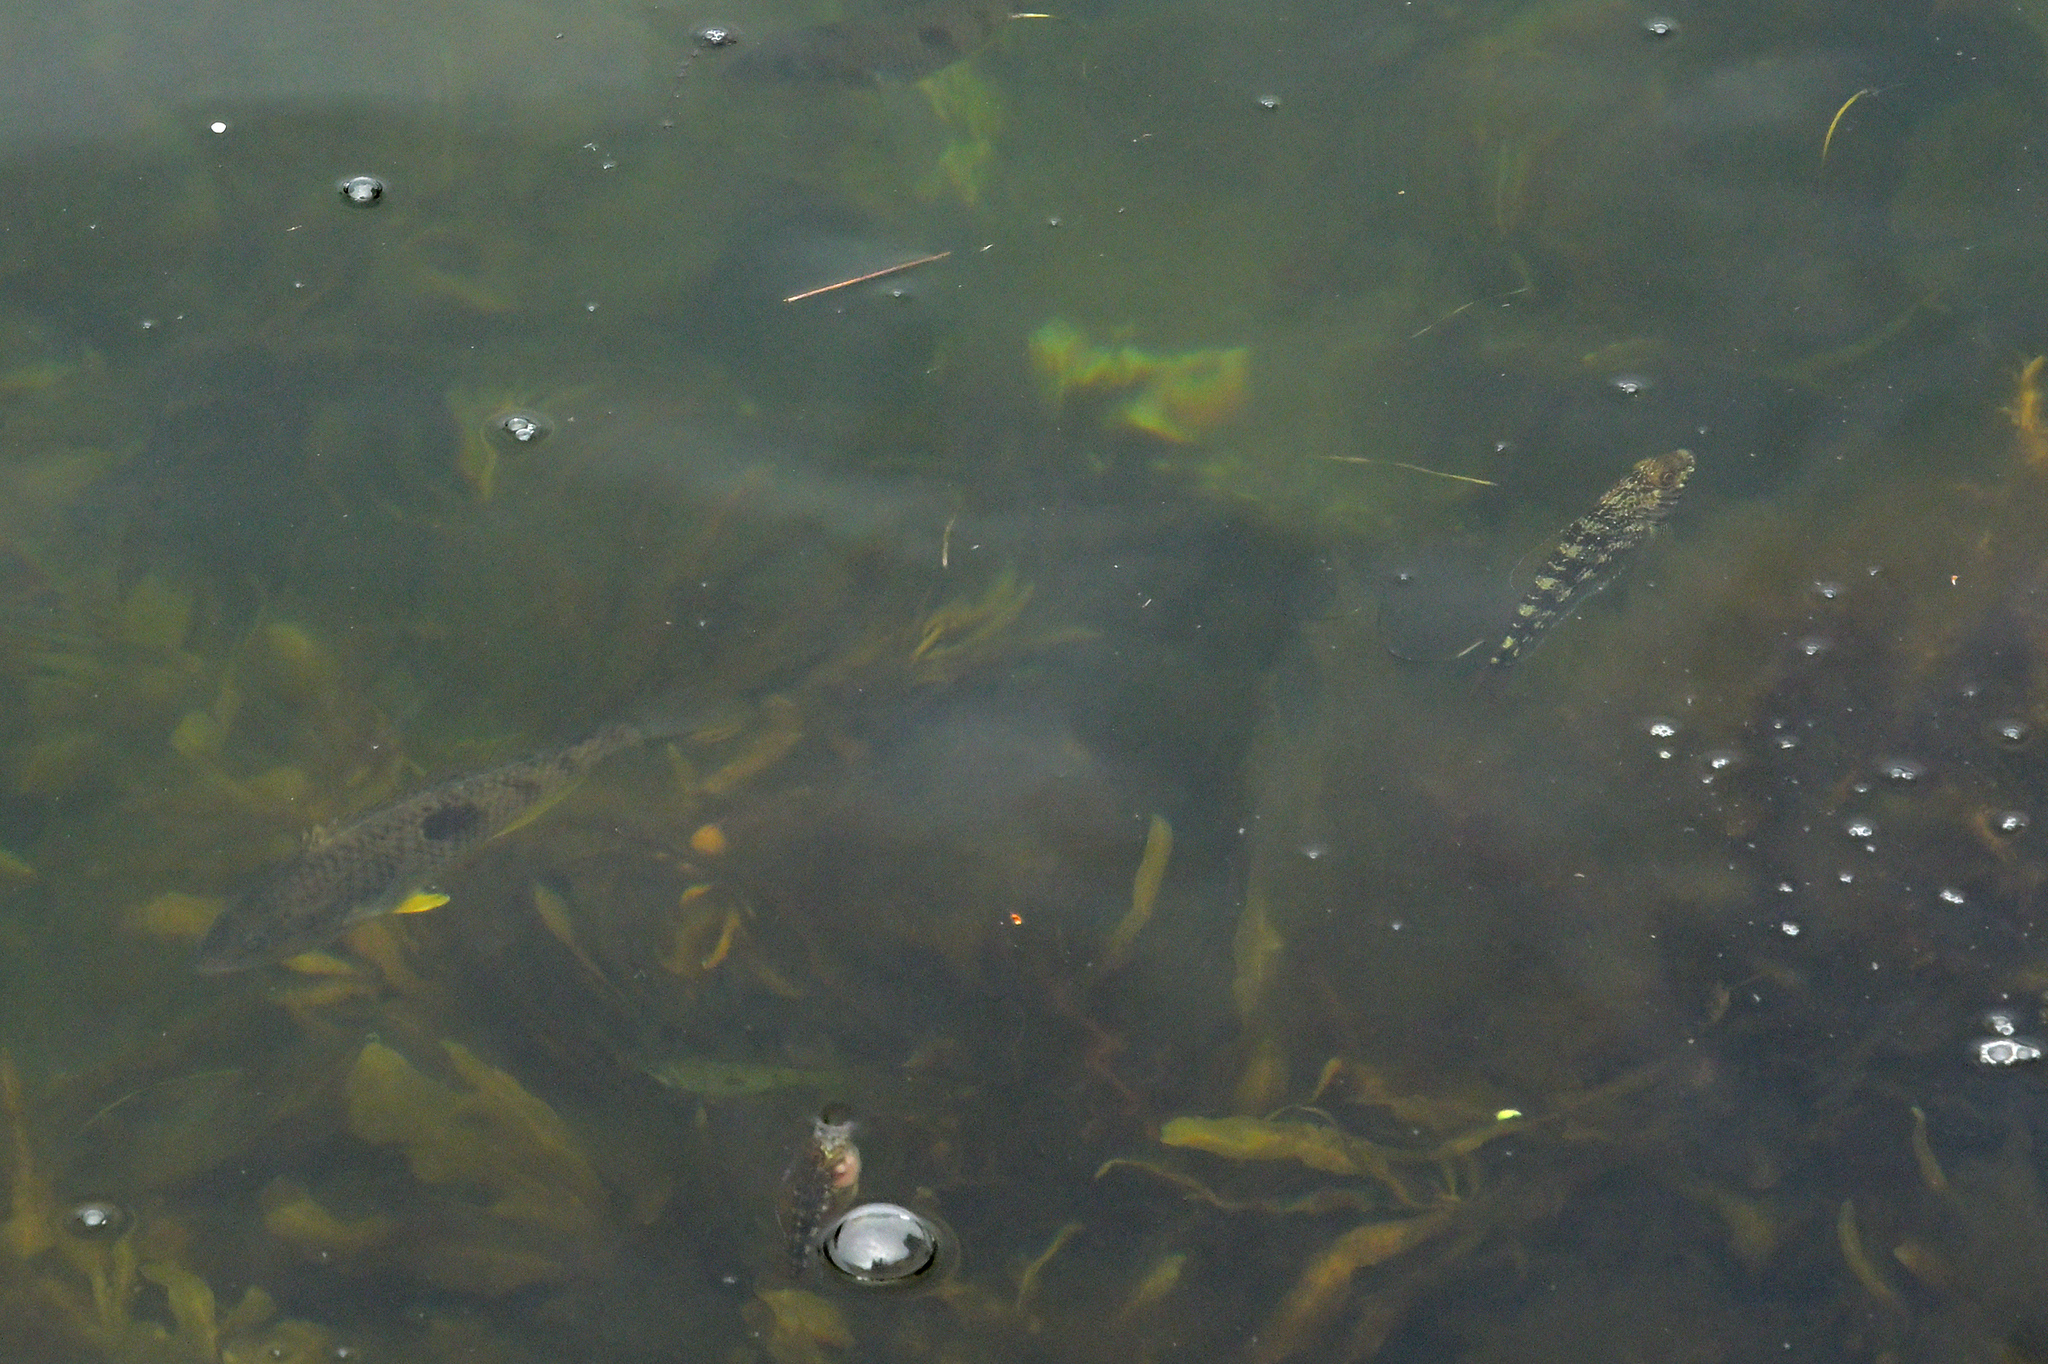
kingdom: Animalia
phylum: Chordata
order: Perciformes
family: Tripterygiidae
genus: Forsterygion
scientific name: Forsterygion varium
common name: Variable triplefin
